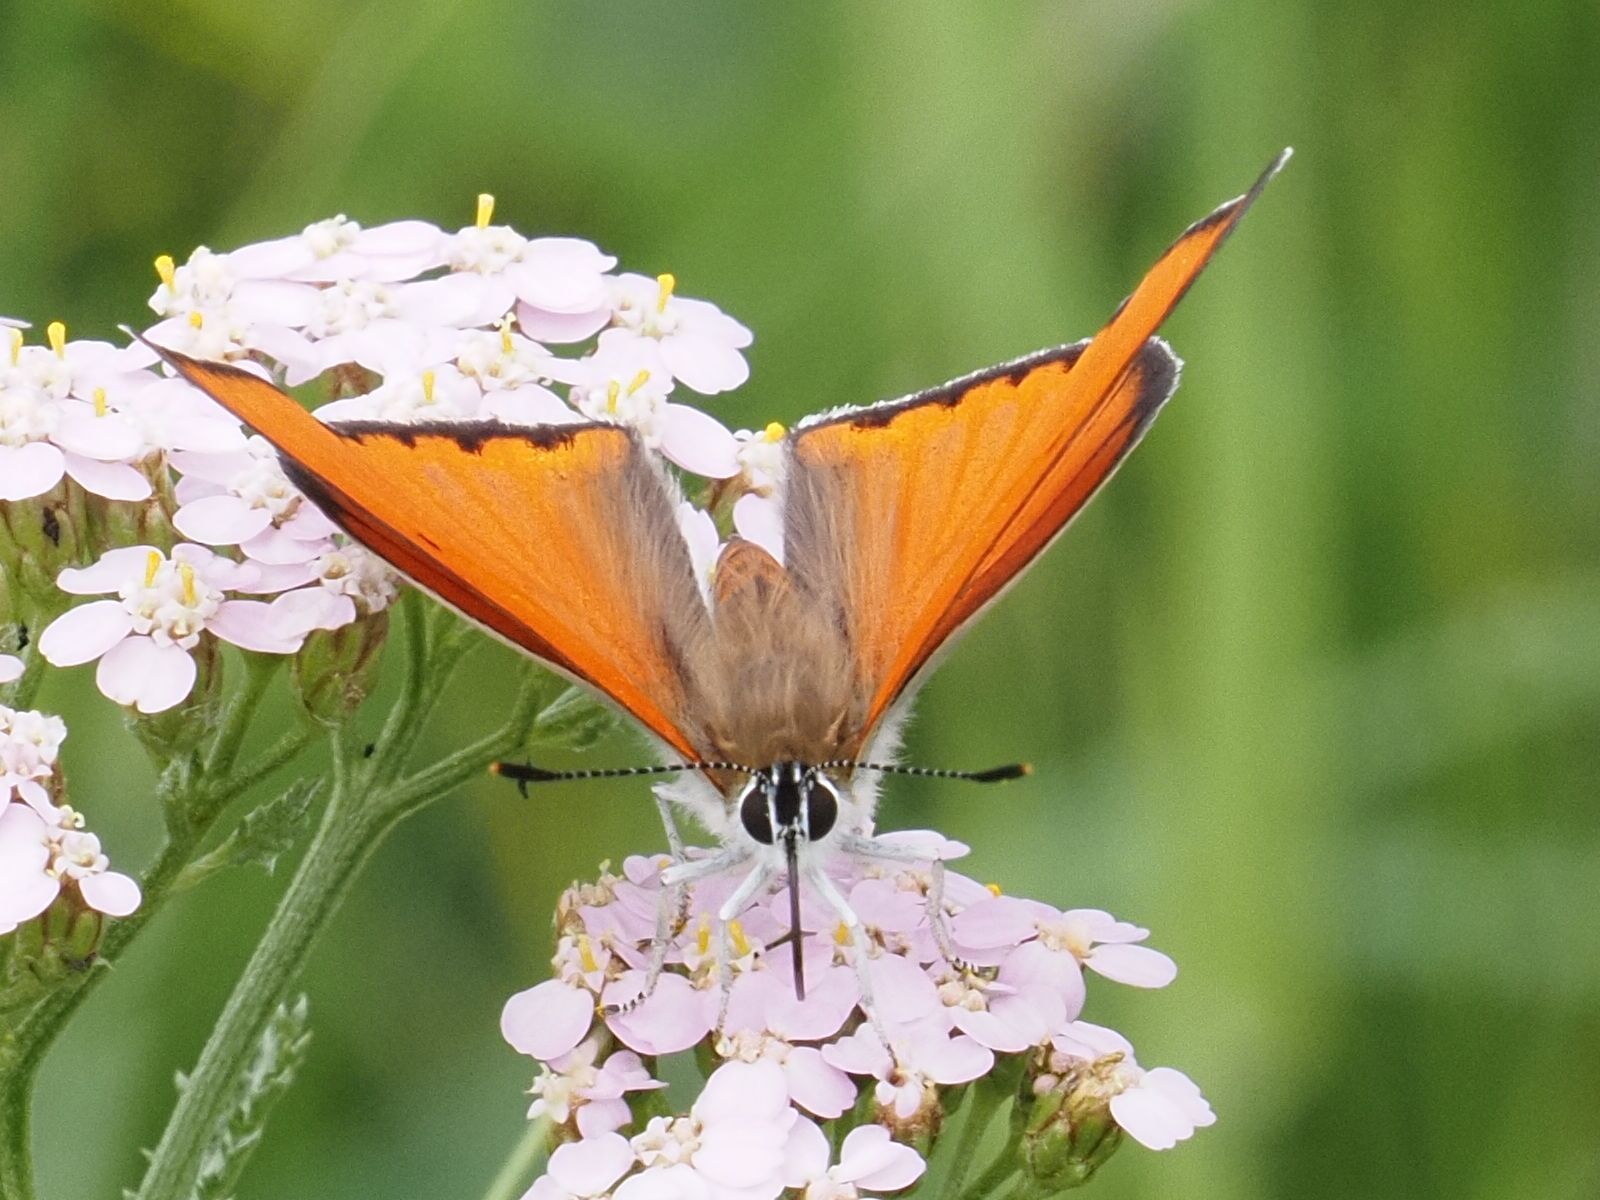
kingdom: Animalia
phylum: Arthropoda
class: Insecta
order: Lepidoptera
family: Lycaenidae
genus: Lycaena
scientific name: Lycaena dispar
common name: Large copper
